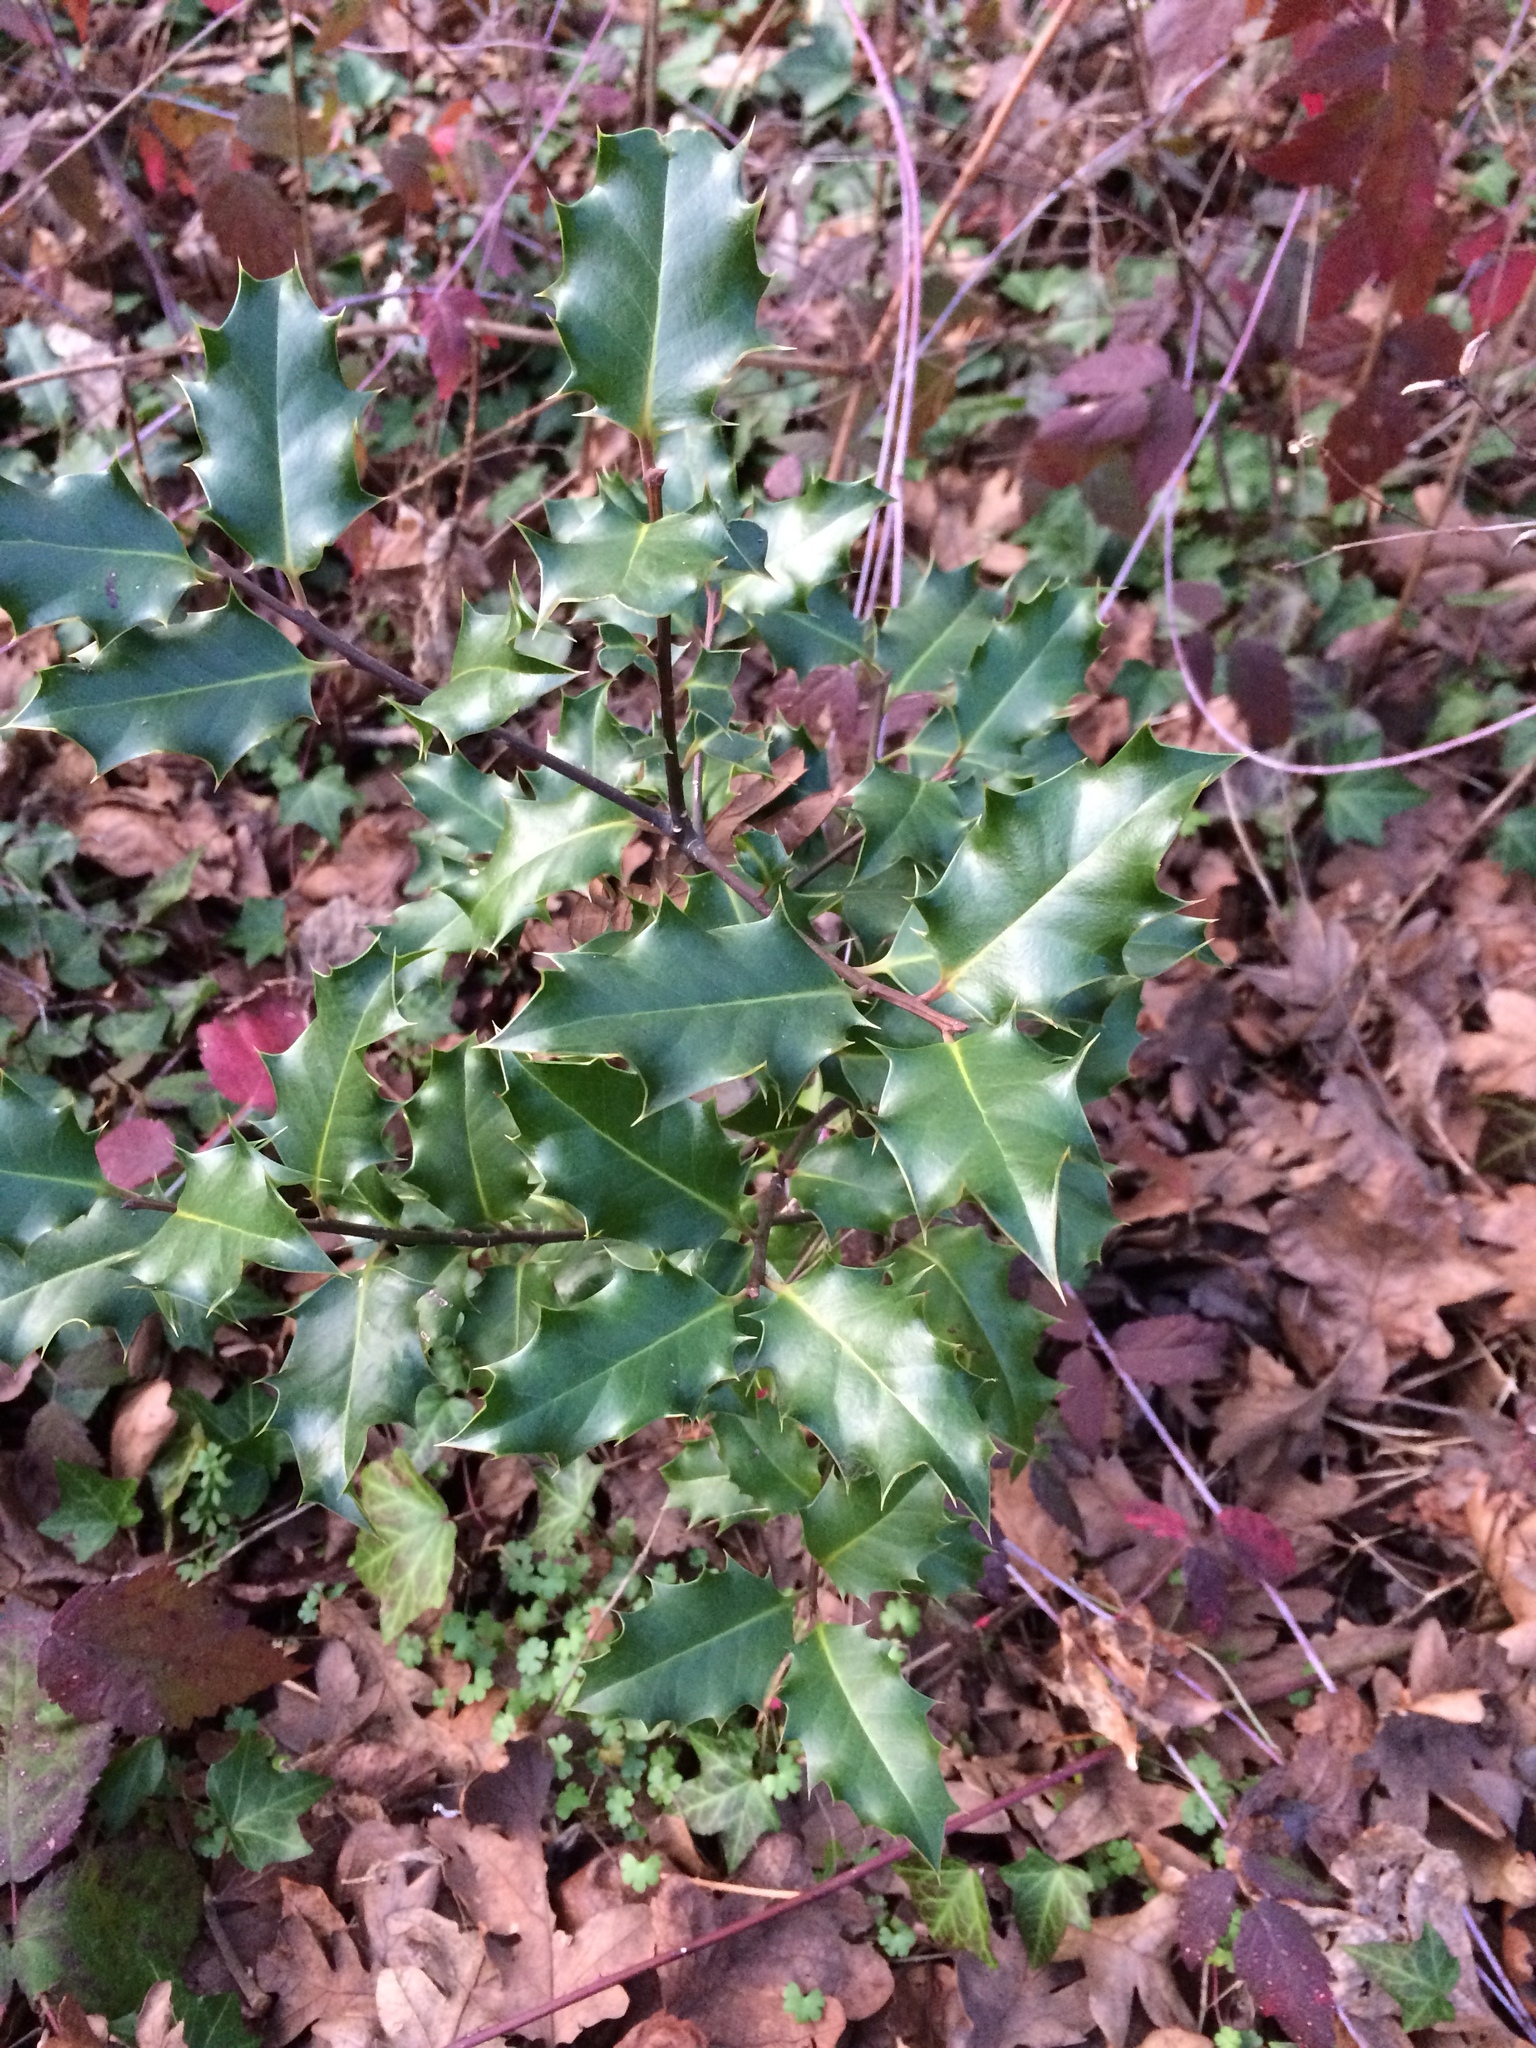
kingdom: Plantae
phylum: Tracheophyta
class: Magnoliopsida
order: Aquifoliales
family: Aquifoliaceae
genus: Ilex
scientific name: Ilex aquifolium
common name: English holly
